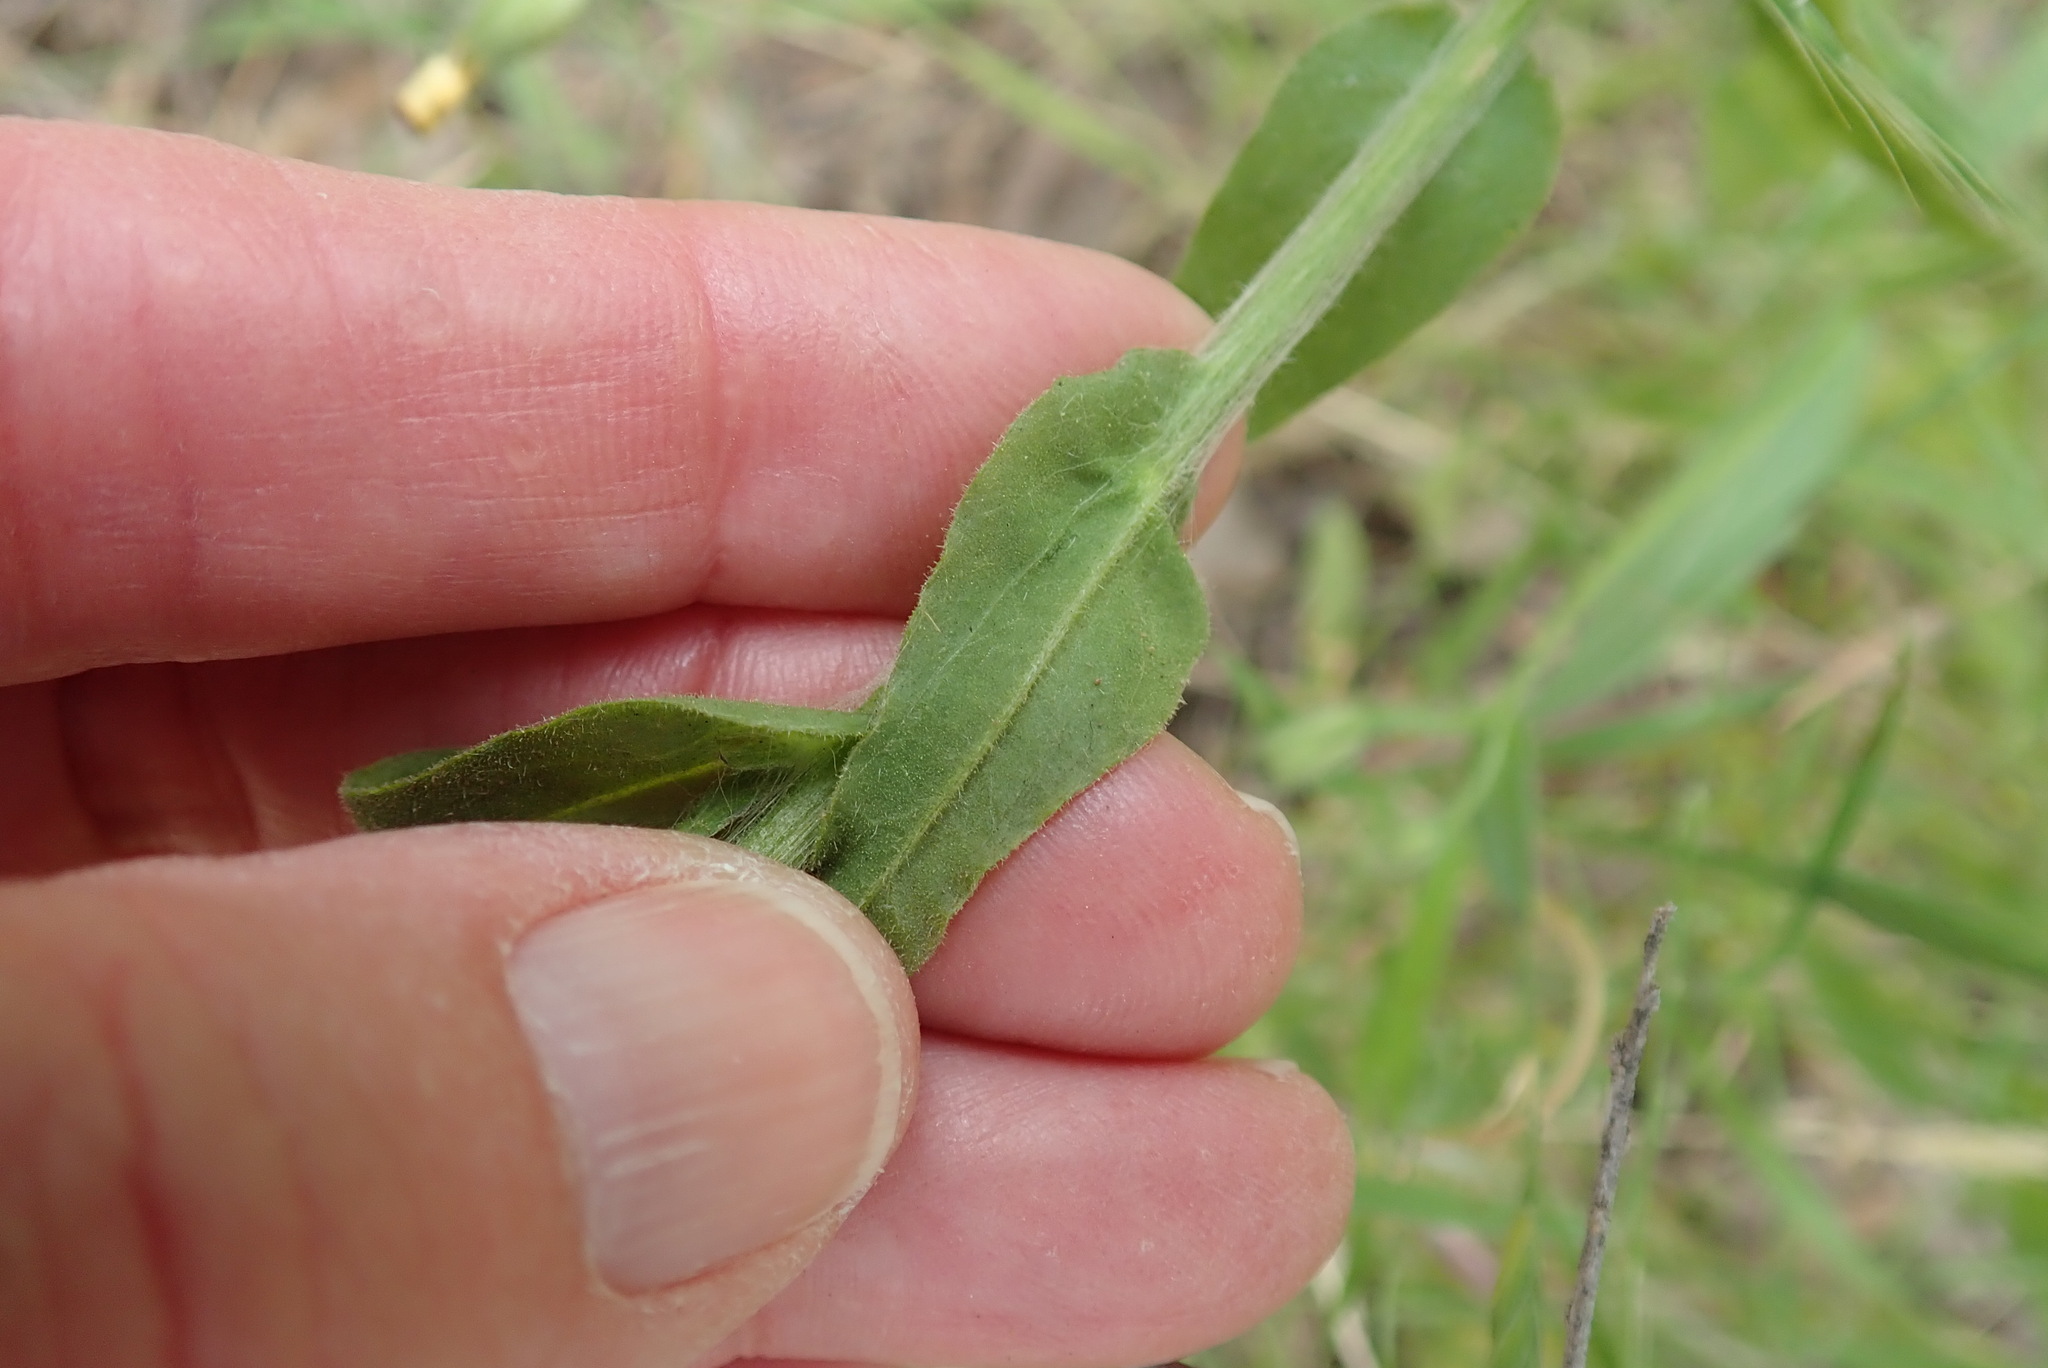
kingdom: Plantae
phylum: Tracheophyta
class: Magnoliopsida
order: Asterales
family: Asteraceae
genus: Pseudognaphalium
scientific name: Pseudognaphalium californicum
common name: California rabbit-tobacco
